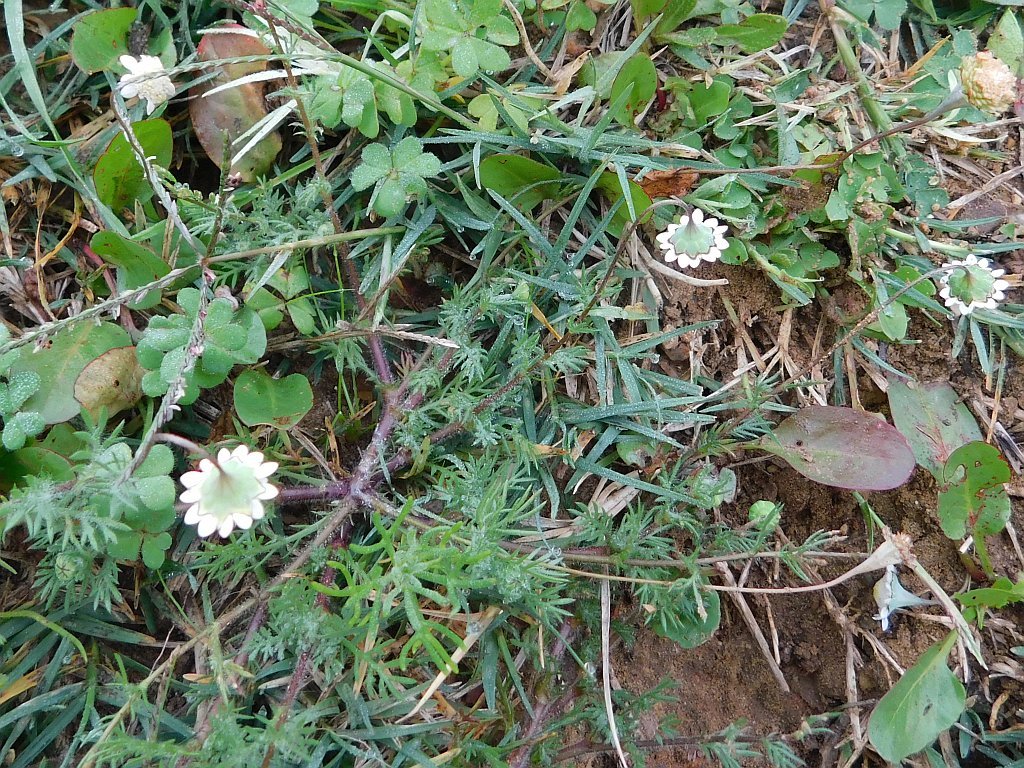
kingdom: Plantae
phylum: Tracheophyta
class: Magnoliopsida
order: Asterales
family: Asteraceae
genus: Cotula
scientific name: Cotula turbinata
